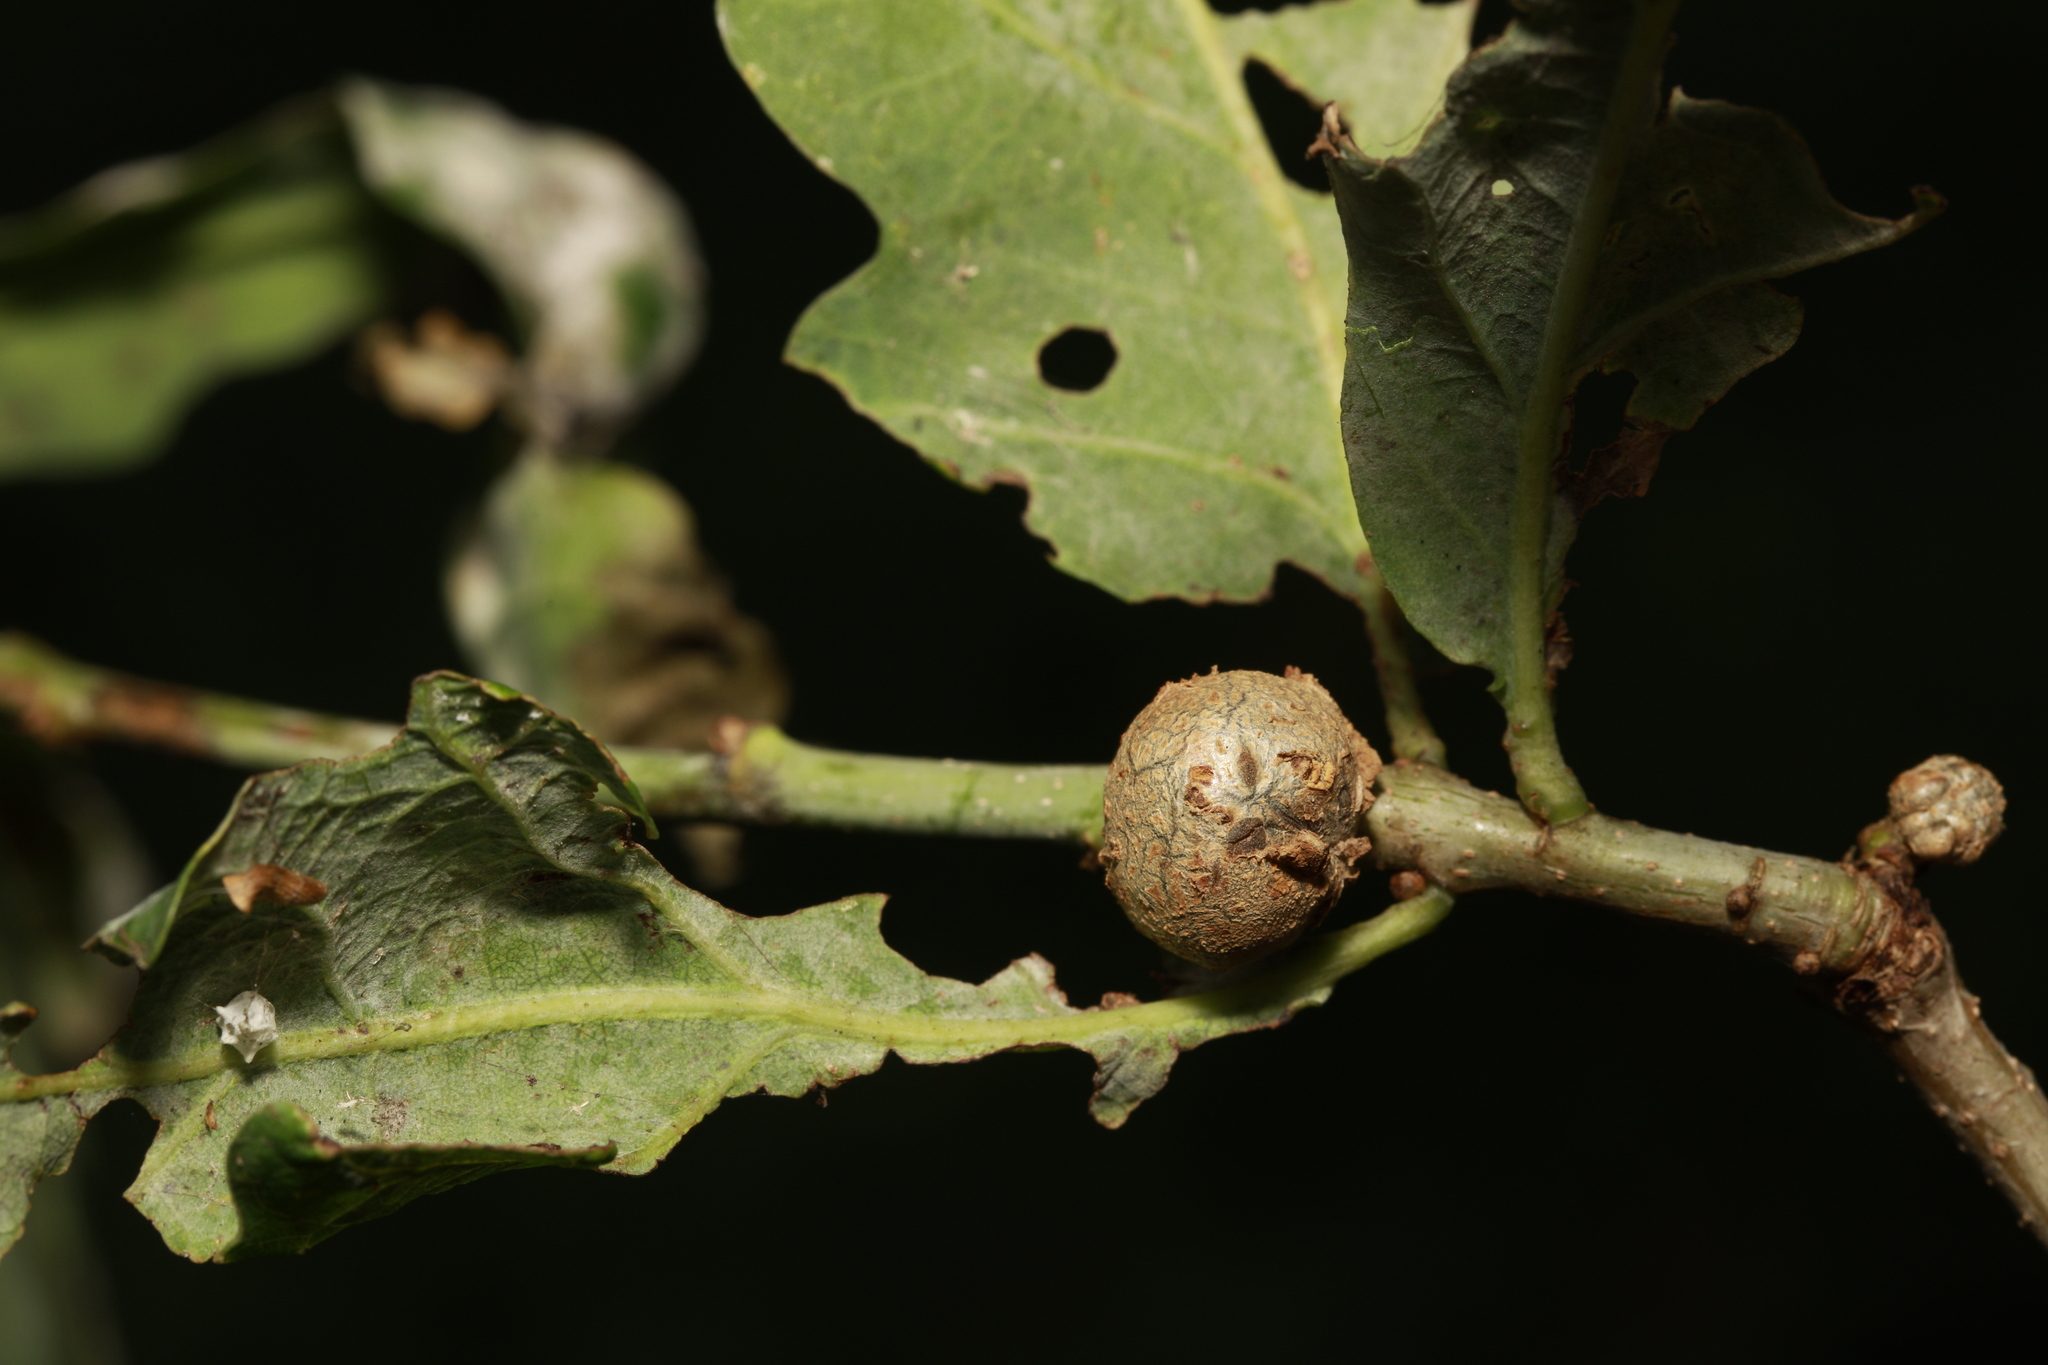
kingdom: Animalia
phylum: Arthropoda
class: Insecta
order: Hymenoptera
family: Cynipidae
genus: Andricus
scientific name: Andricus lignicolus
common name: Cola-nut gall
